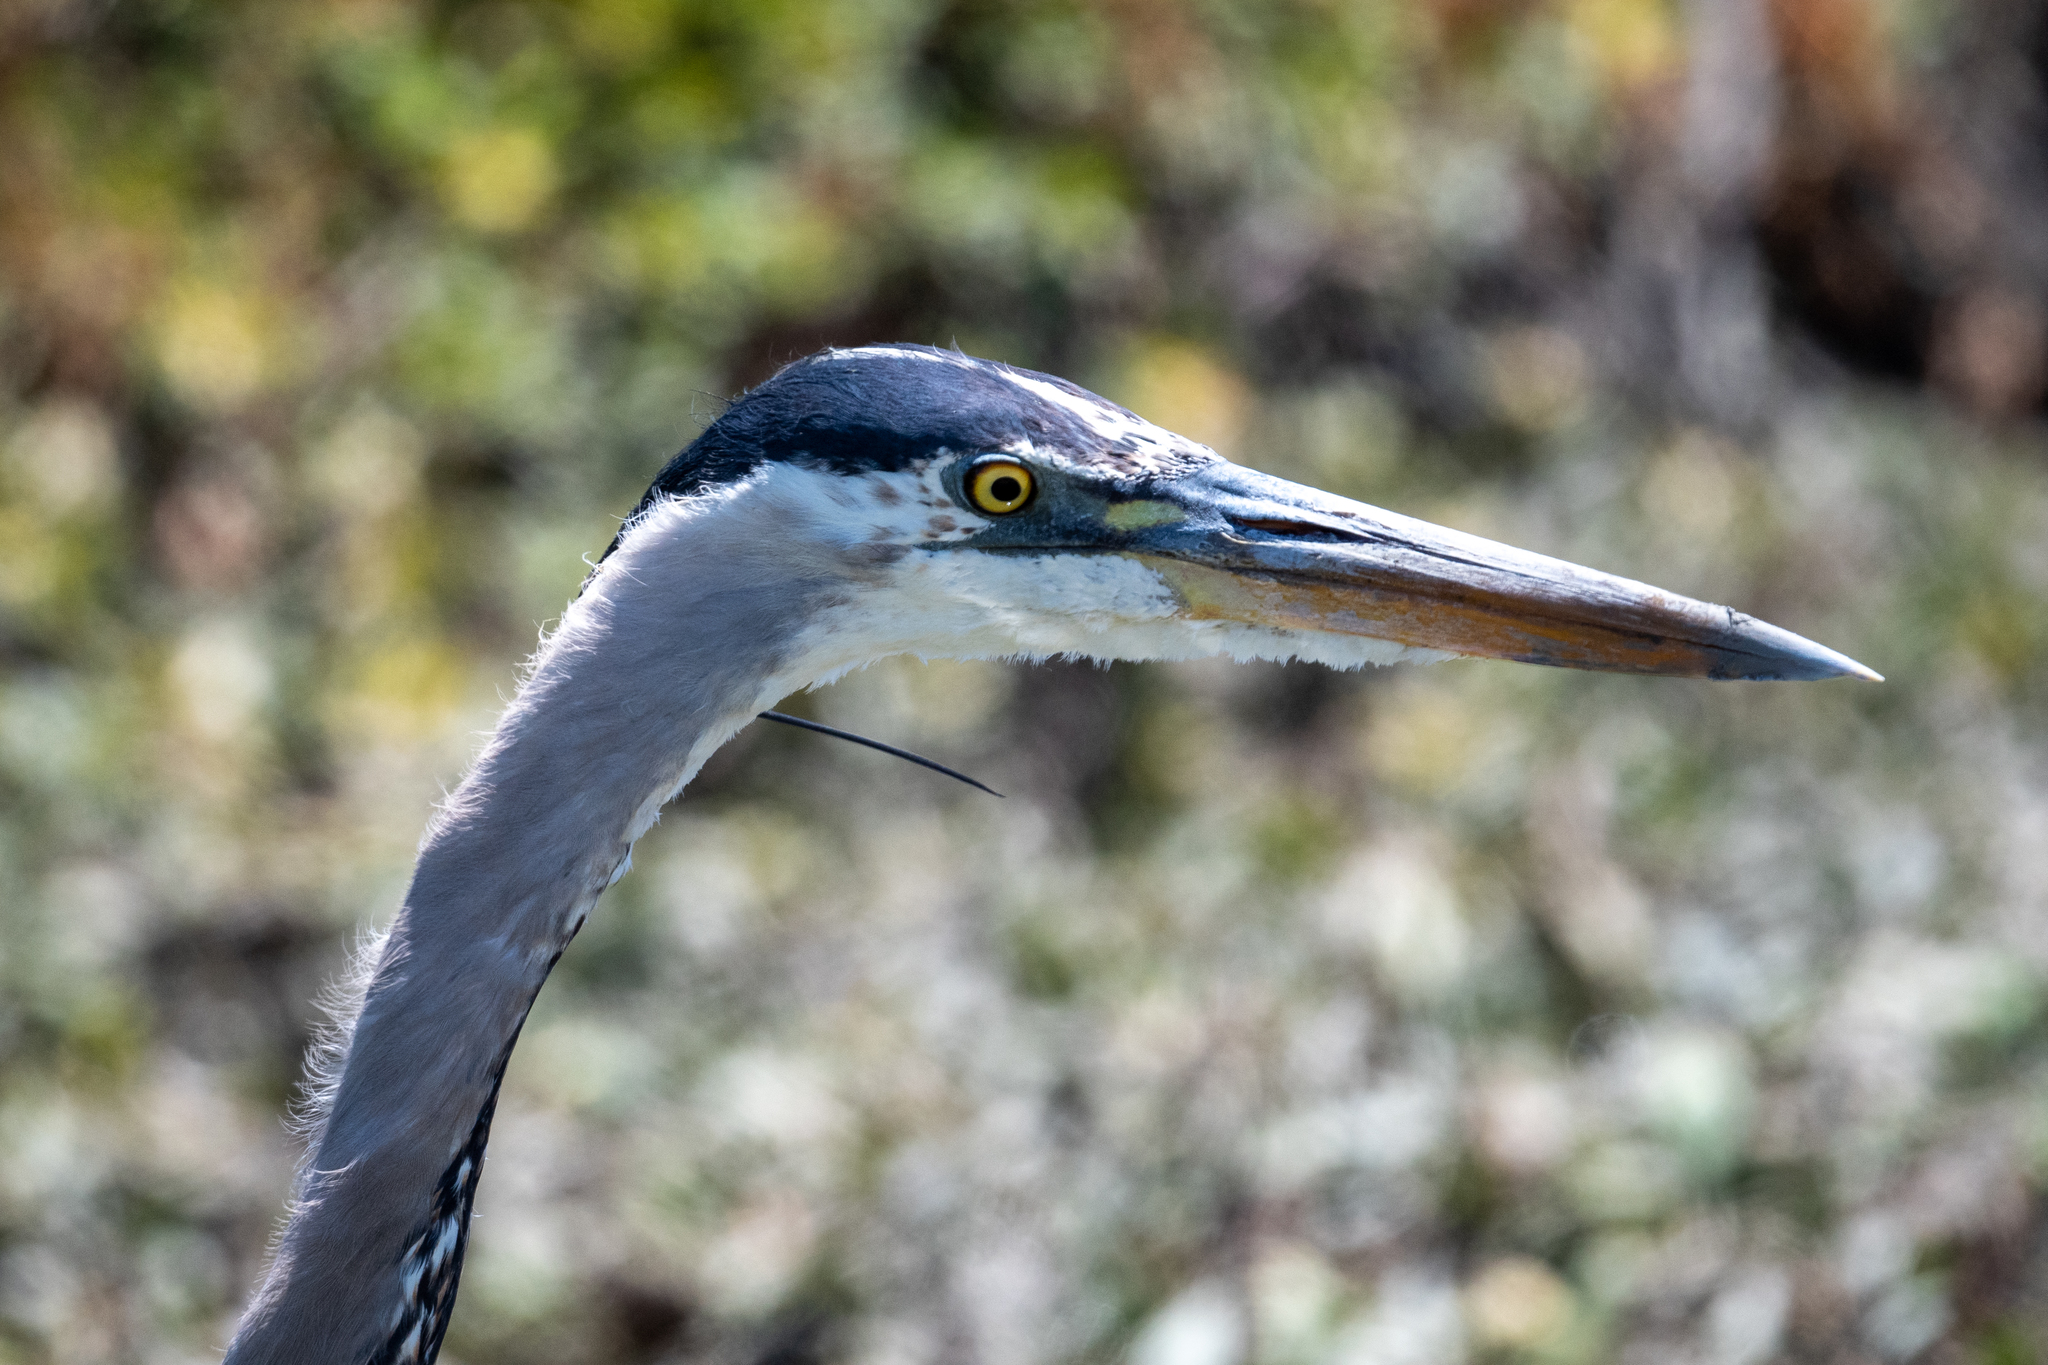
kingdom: Animalia
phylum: Chordata
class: Aves
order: Pelecaniformes
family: Ardeidae
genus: Ardea
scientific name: Ardea herodias
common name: Great blue heron
